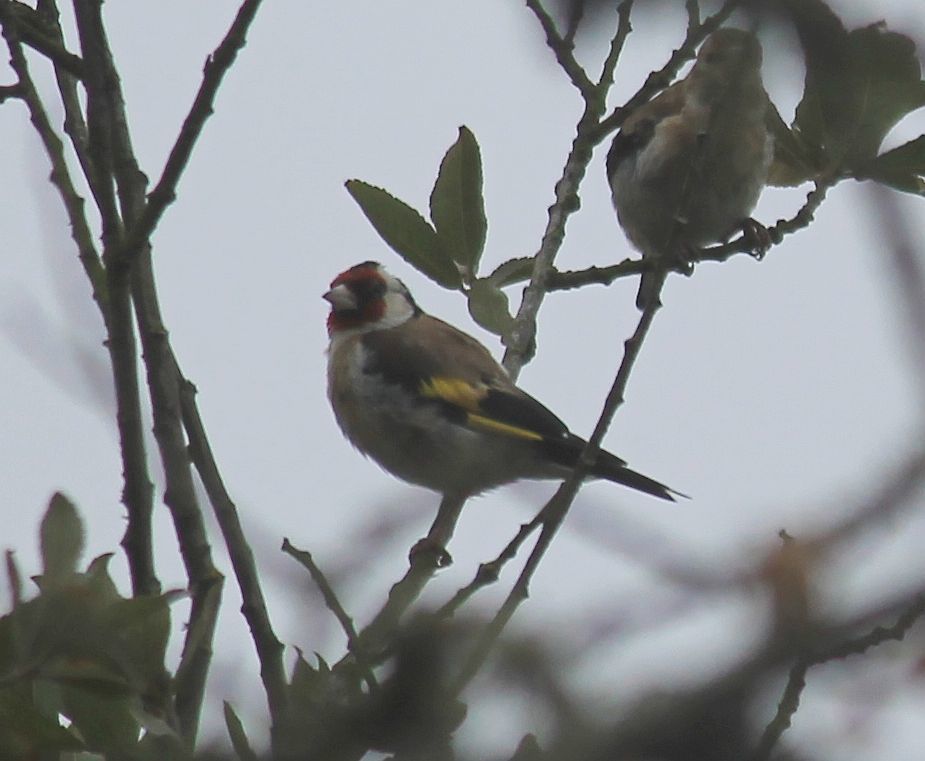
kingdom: Animalia
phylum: Chordata
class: Aves
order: Passeriformes
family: Fringillidae
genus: Carduelis
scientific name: Carduelis carduelis
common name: European goldfinch
